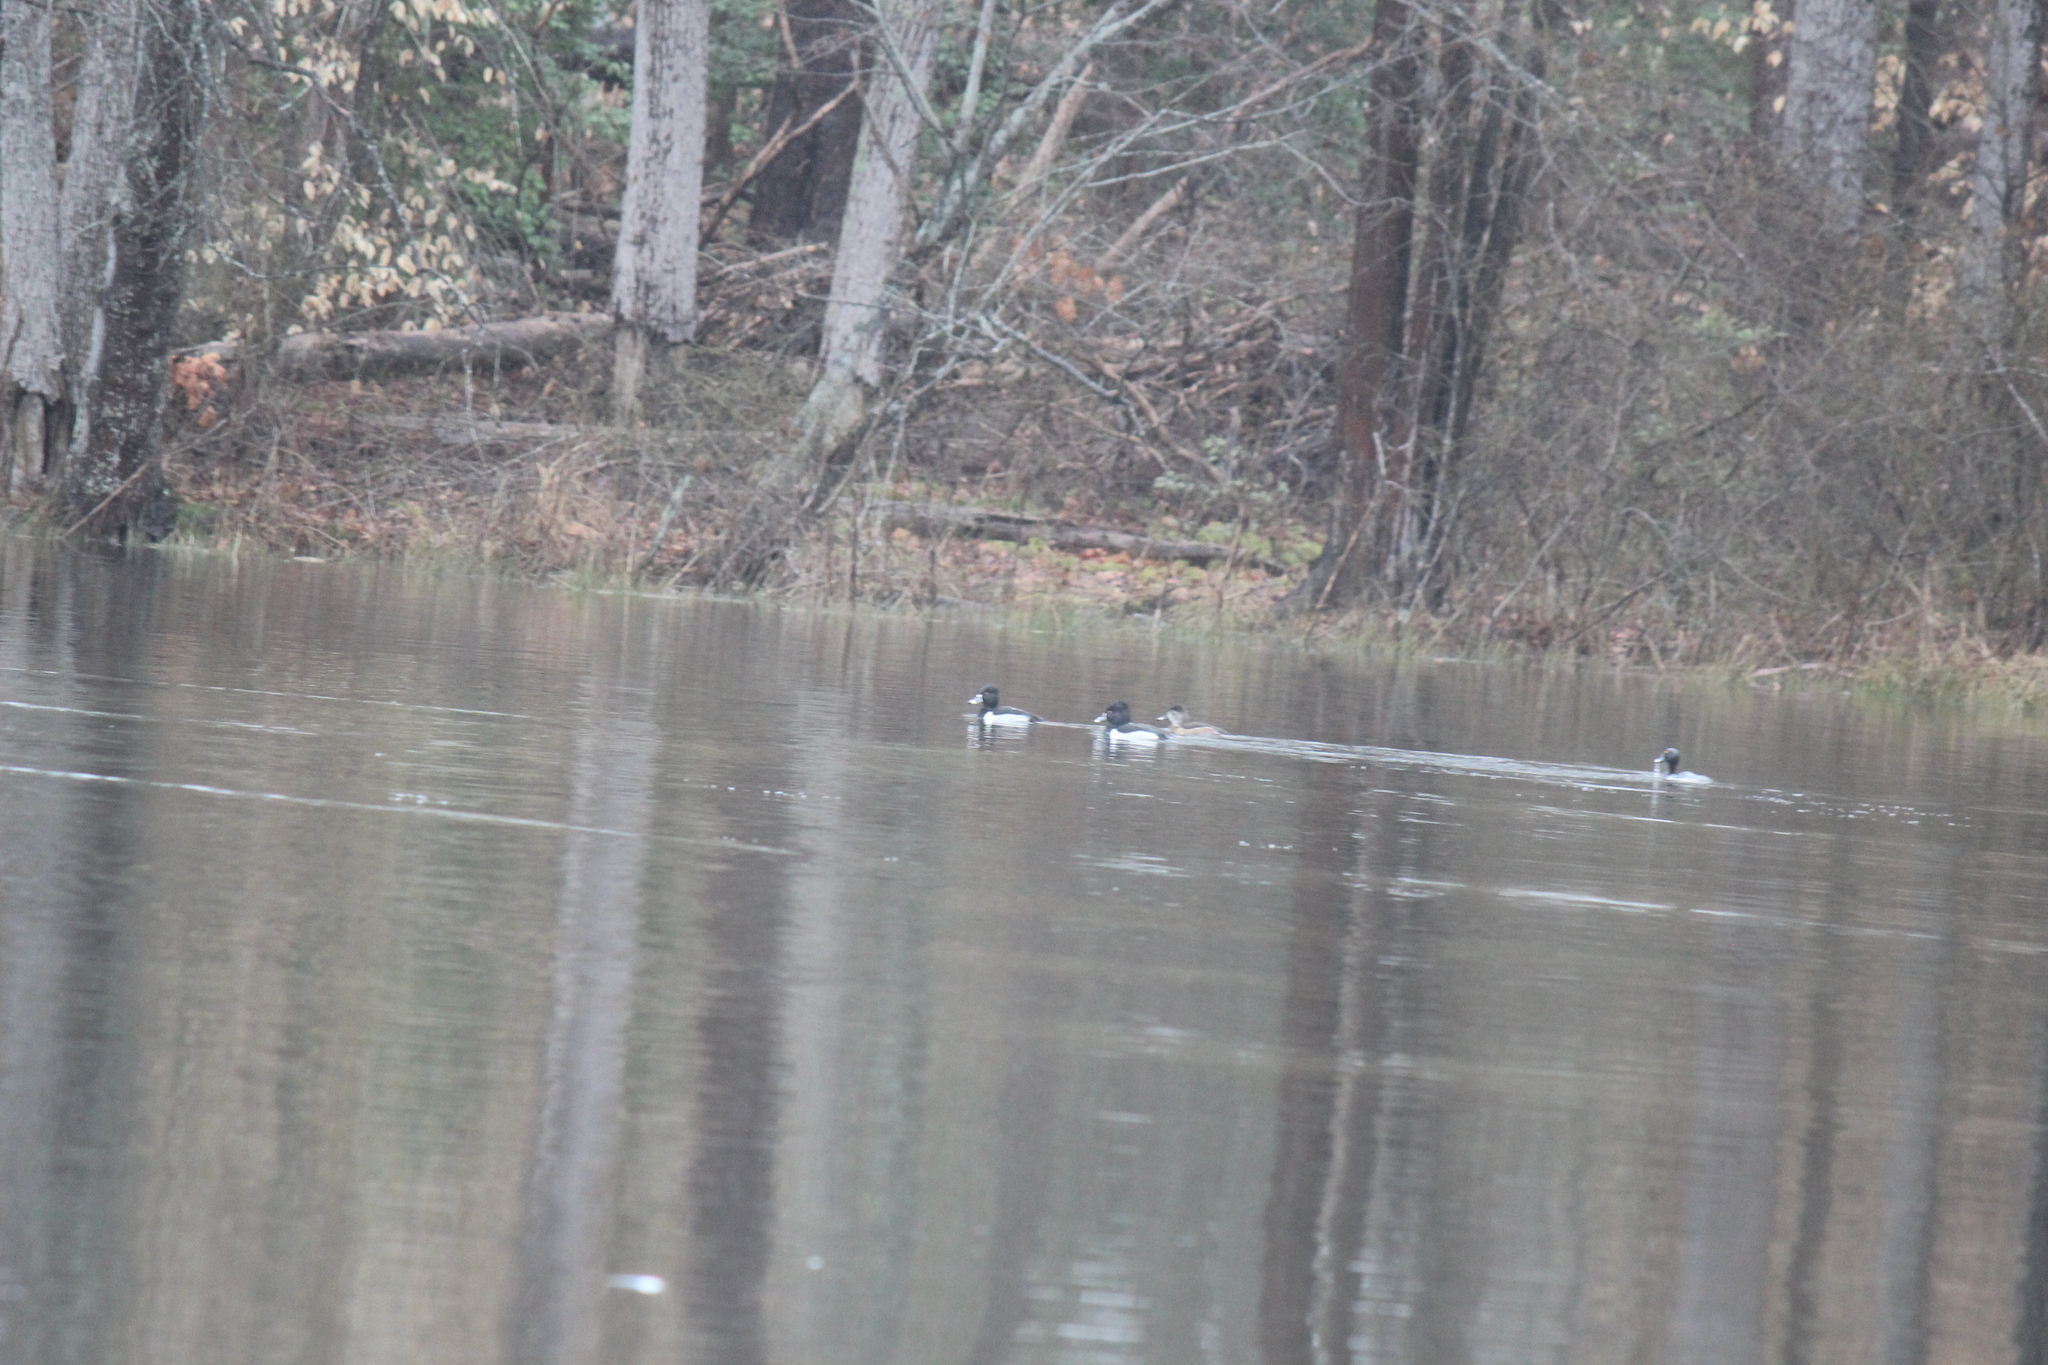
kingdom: Animalia
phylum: Chordata
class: Aves
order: Anseriformes
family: Anatidae
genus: Aythya
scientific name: Aythya collaris
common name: Ring-necked duck
